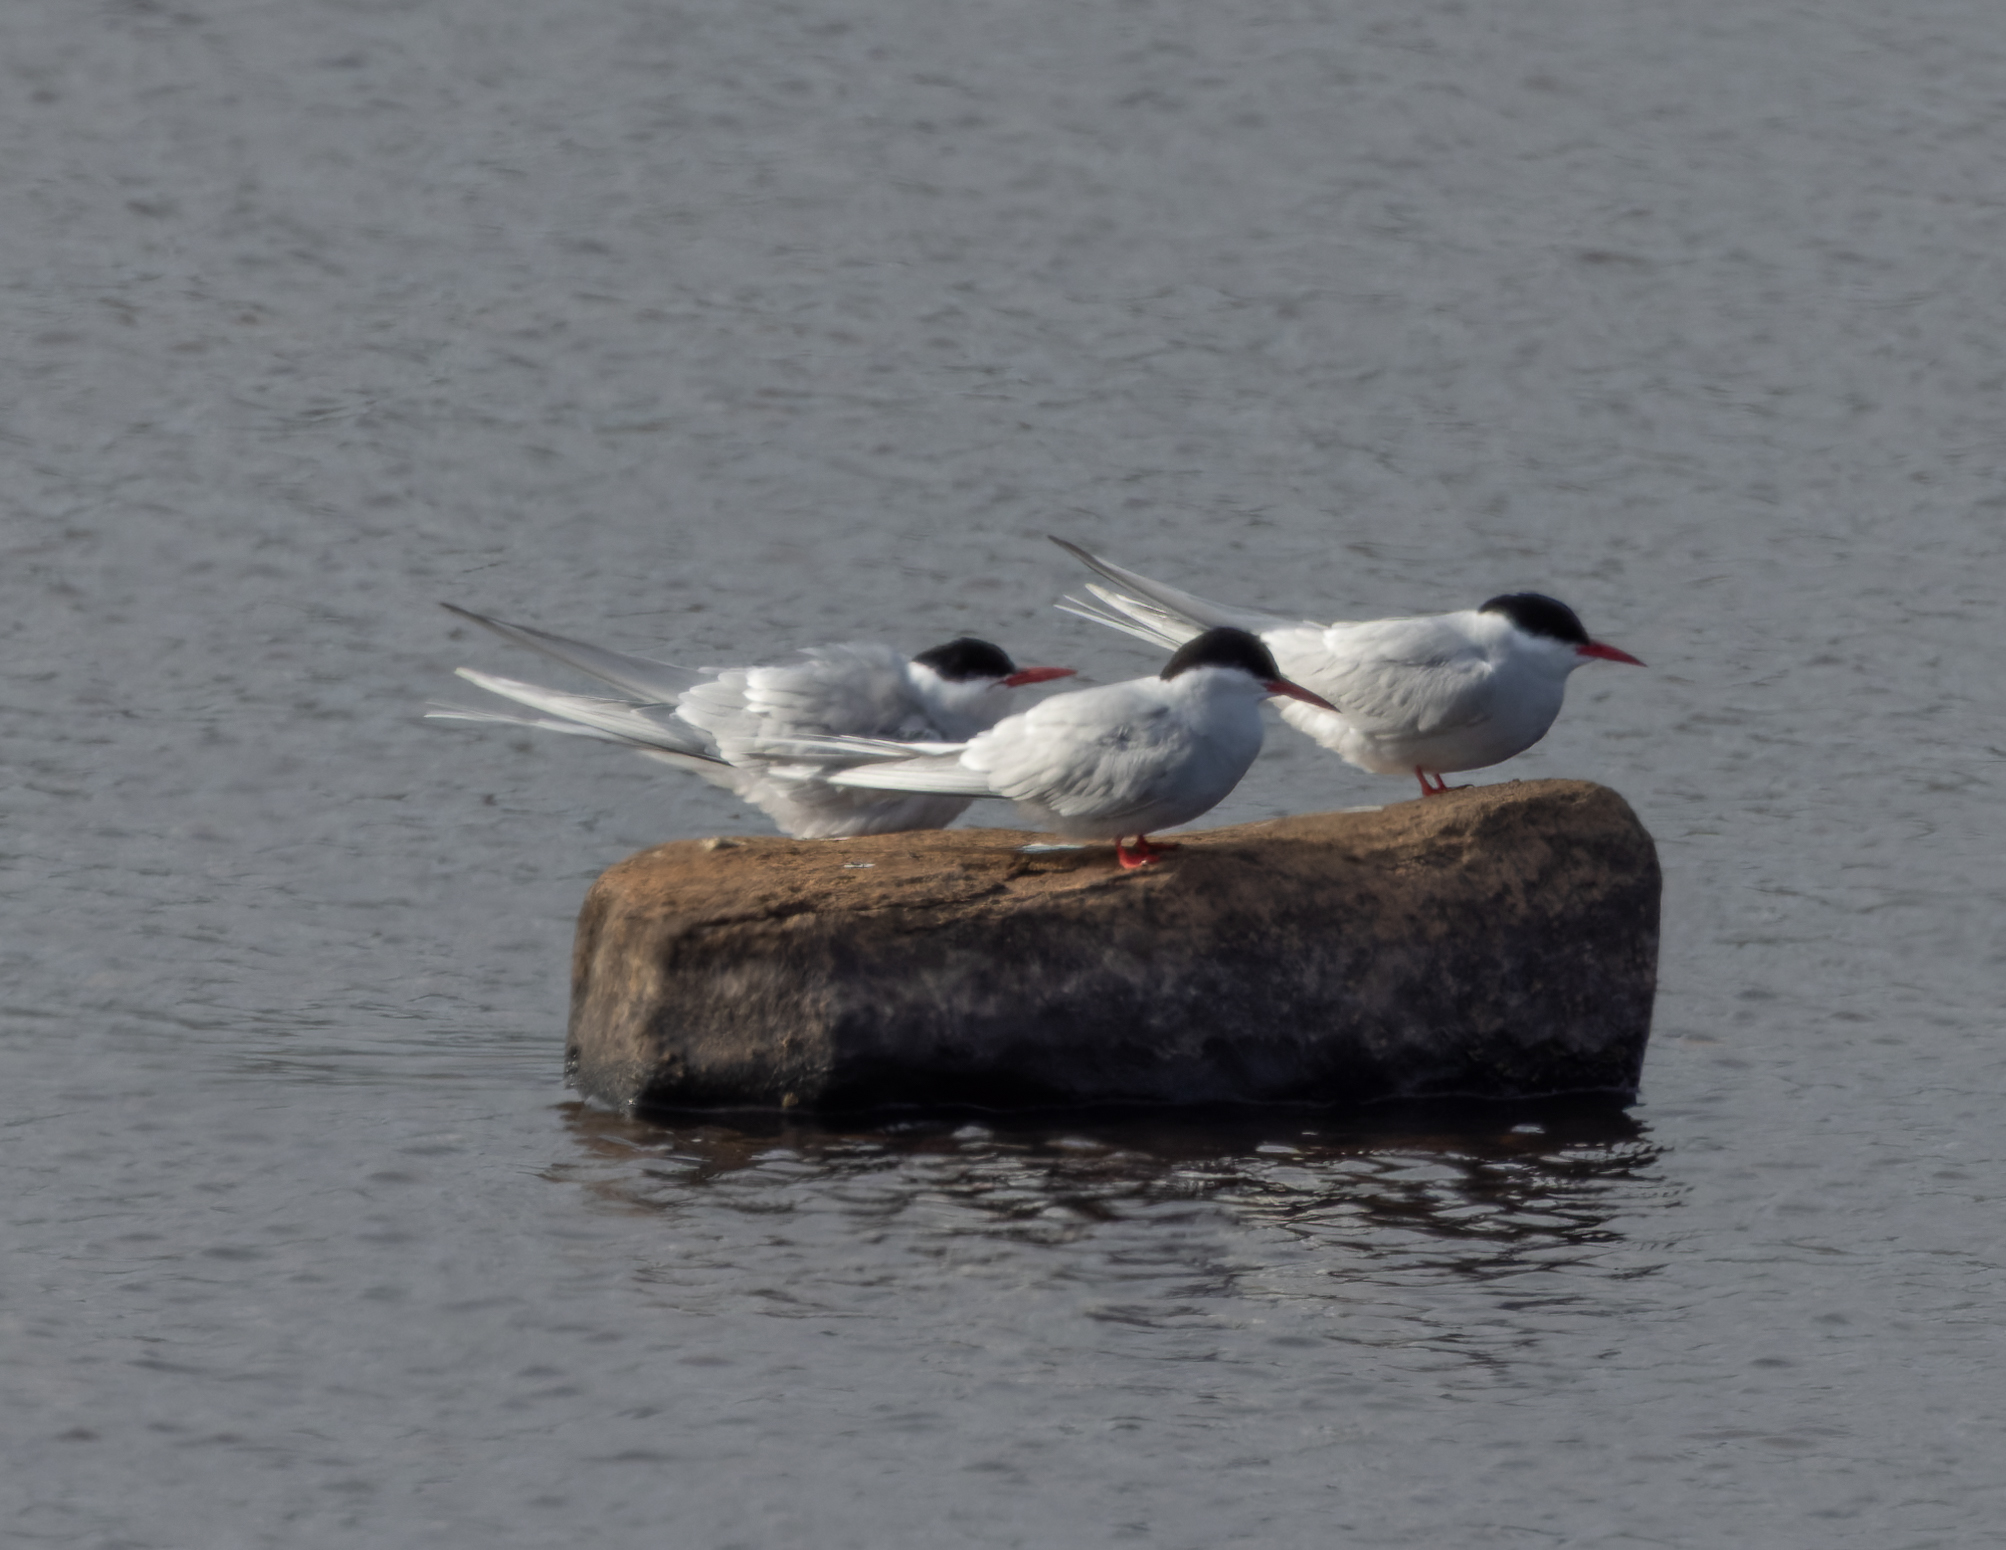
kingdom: Animalia
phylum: Chordata
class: Aves
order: Charadriiformes
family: Laridae
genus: Sterna
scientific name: Sterna paradisaea
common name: Arctic tern
